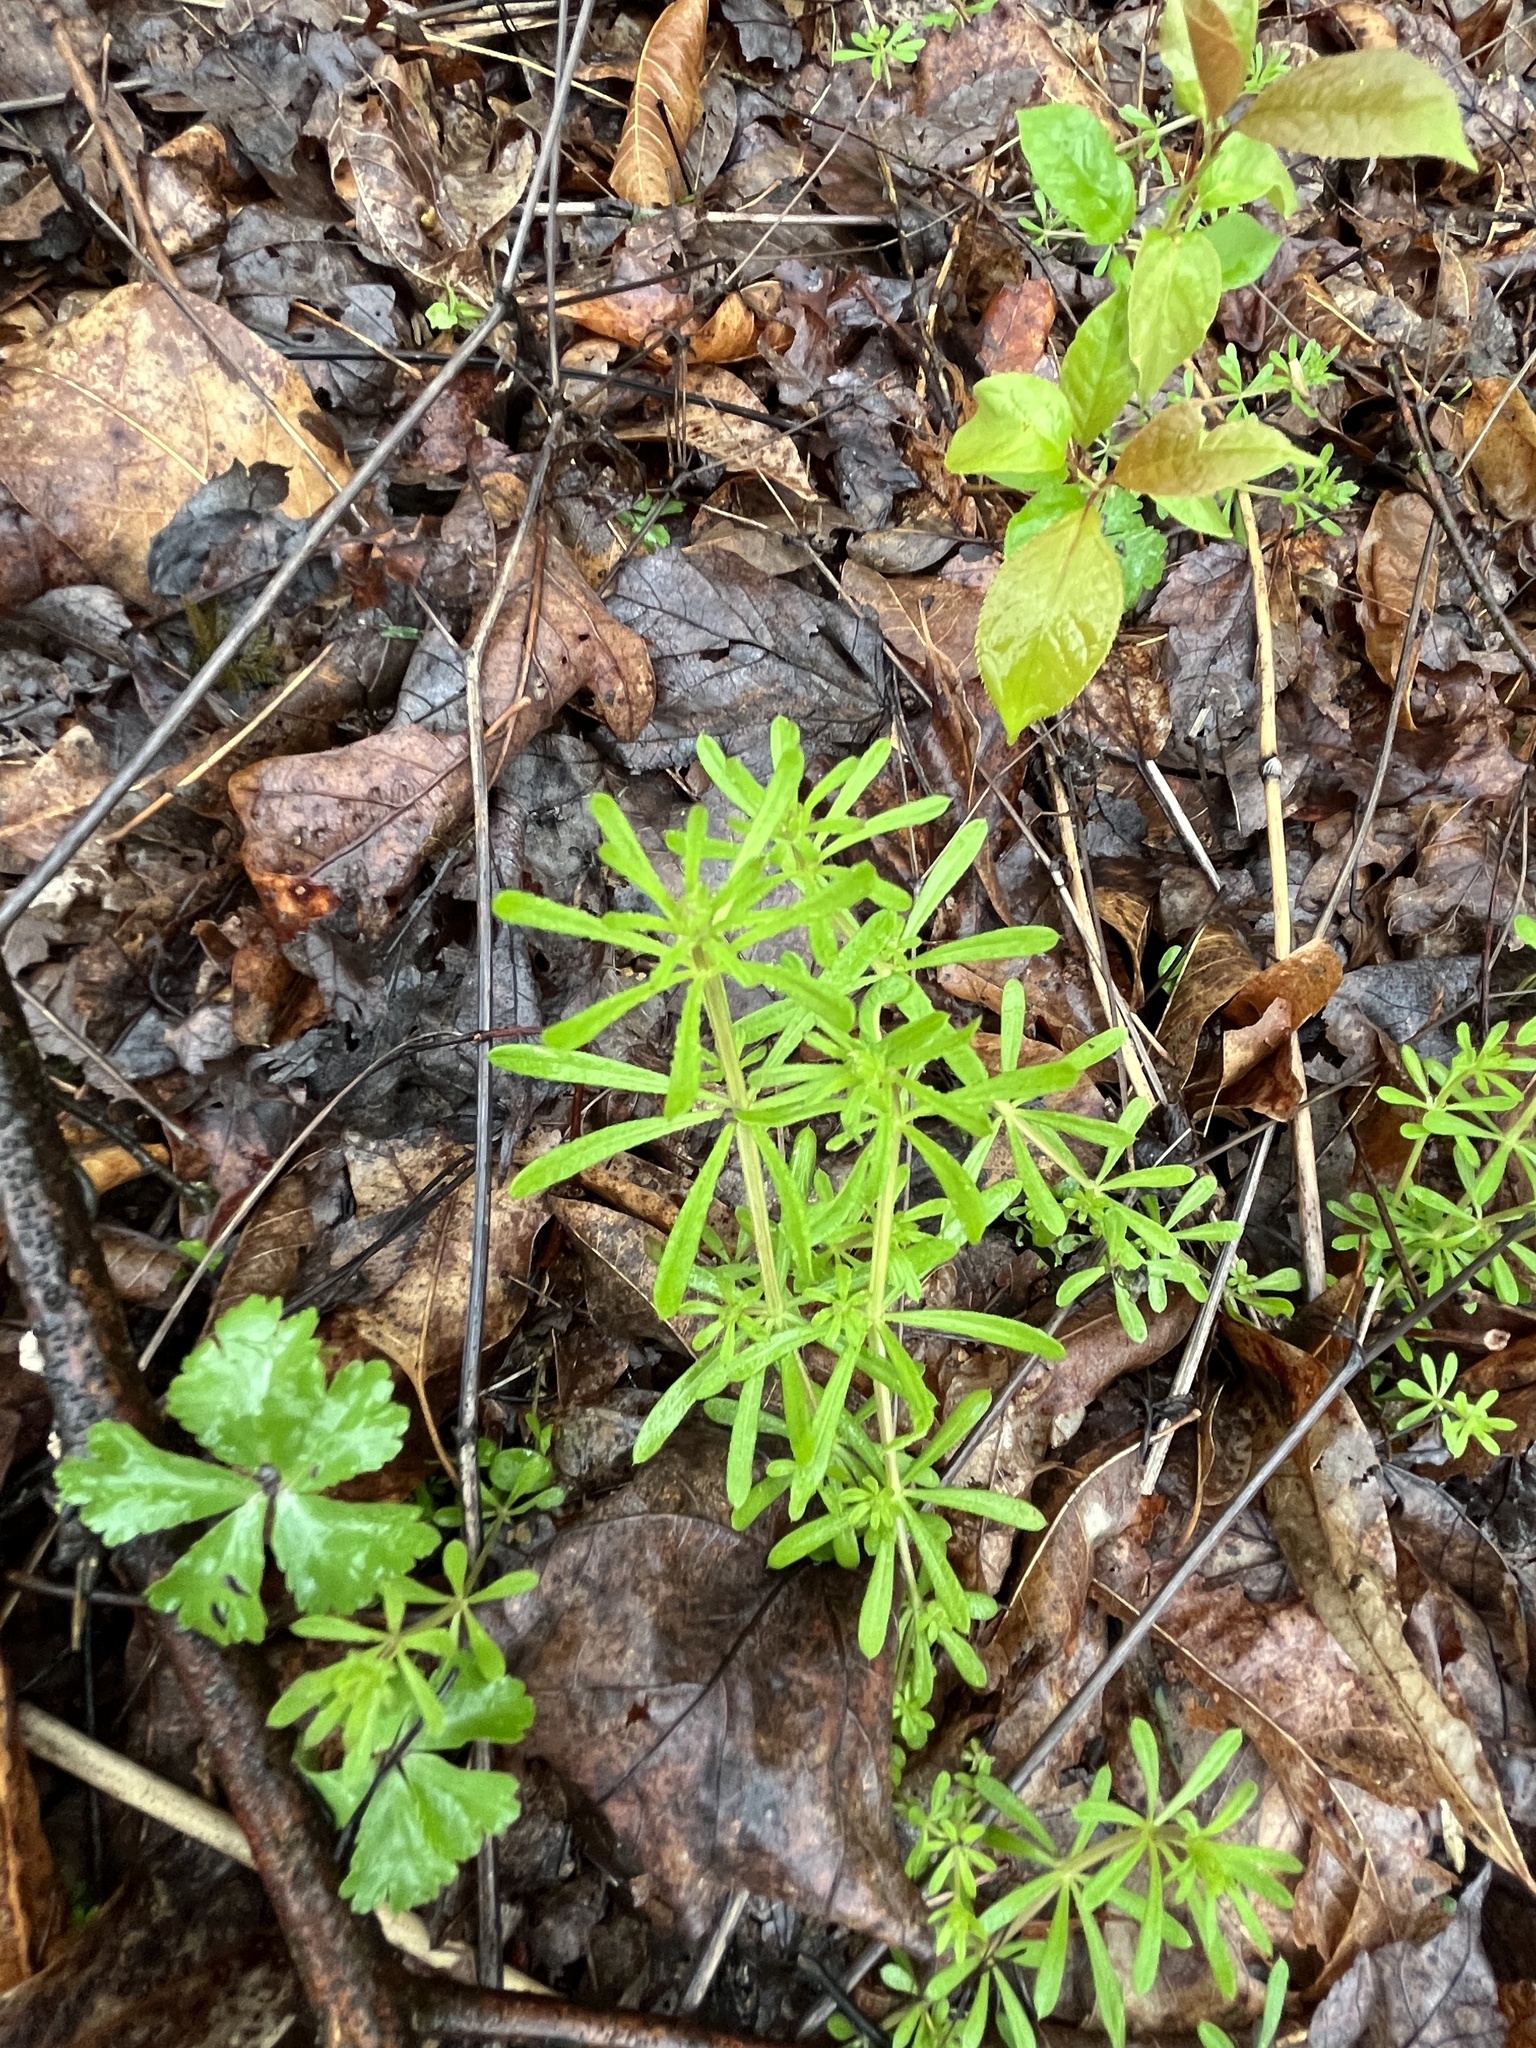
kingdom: Plantae
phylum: Tracheophyta
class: Magnoliopsida
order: Gentianales
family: Rubiaceae
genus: Galium
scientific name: Galium aparine
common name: Cleavers
